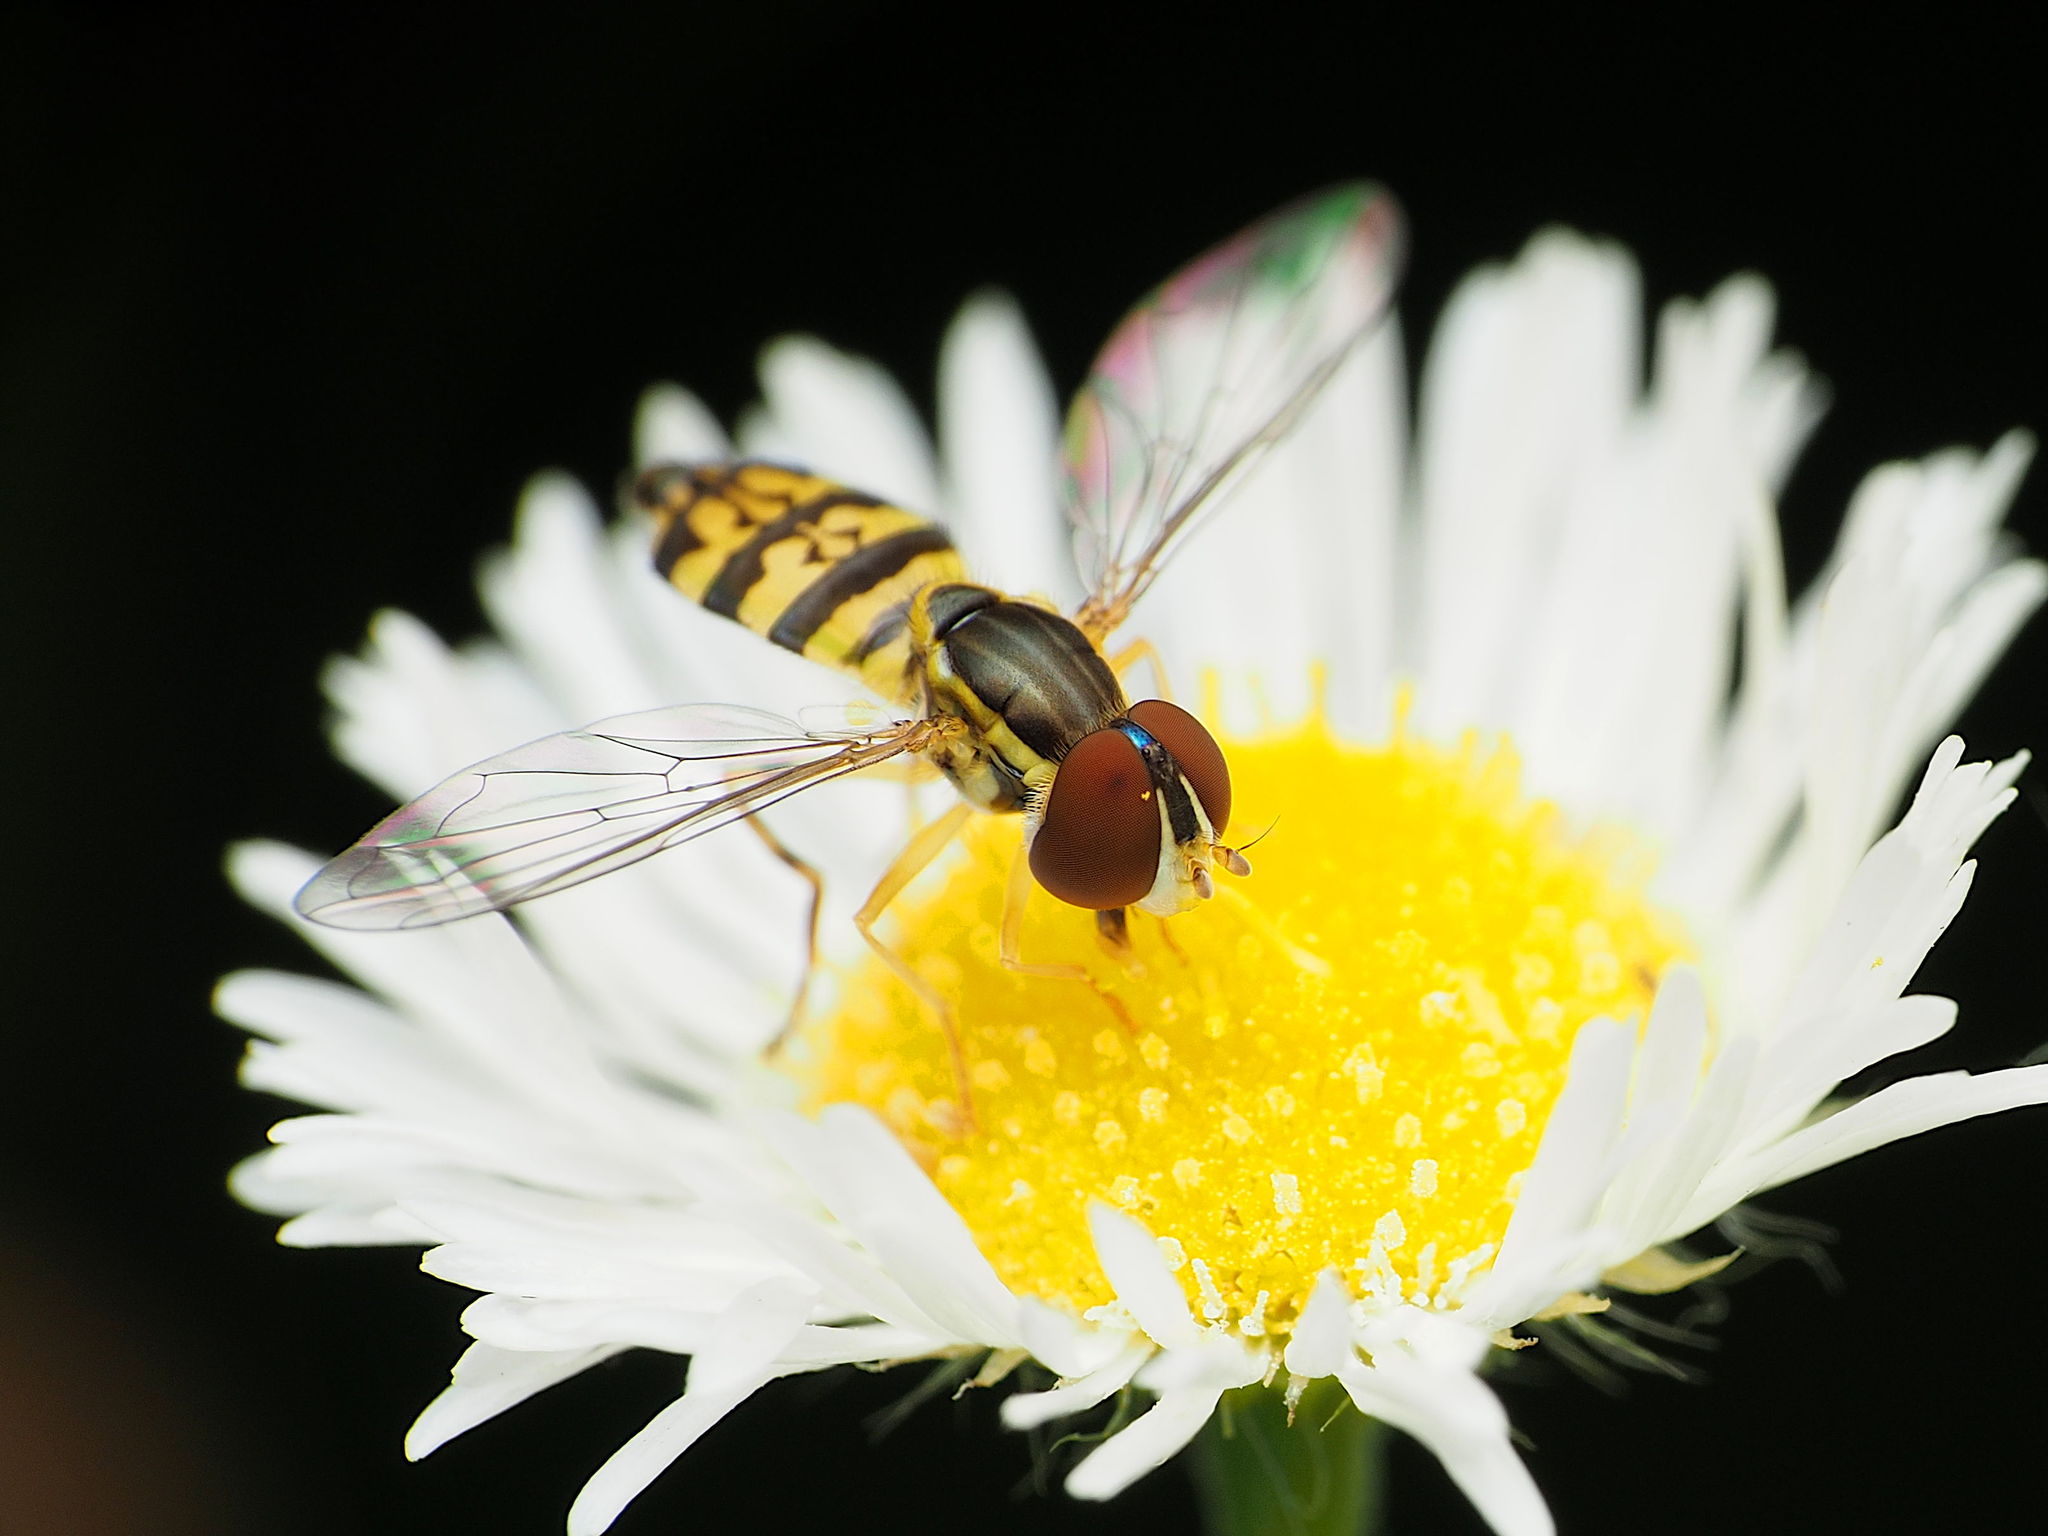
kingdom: Animalia
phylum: Arthropoda
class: Insecta
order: Diptera
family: Syrphidae
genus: Toxomerus
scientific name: Toxomerus geminatus
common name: Eastern calligrapher
